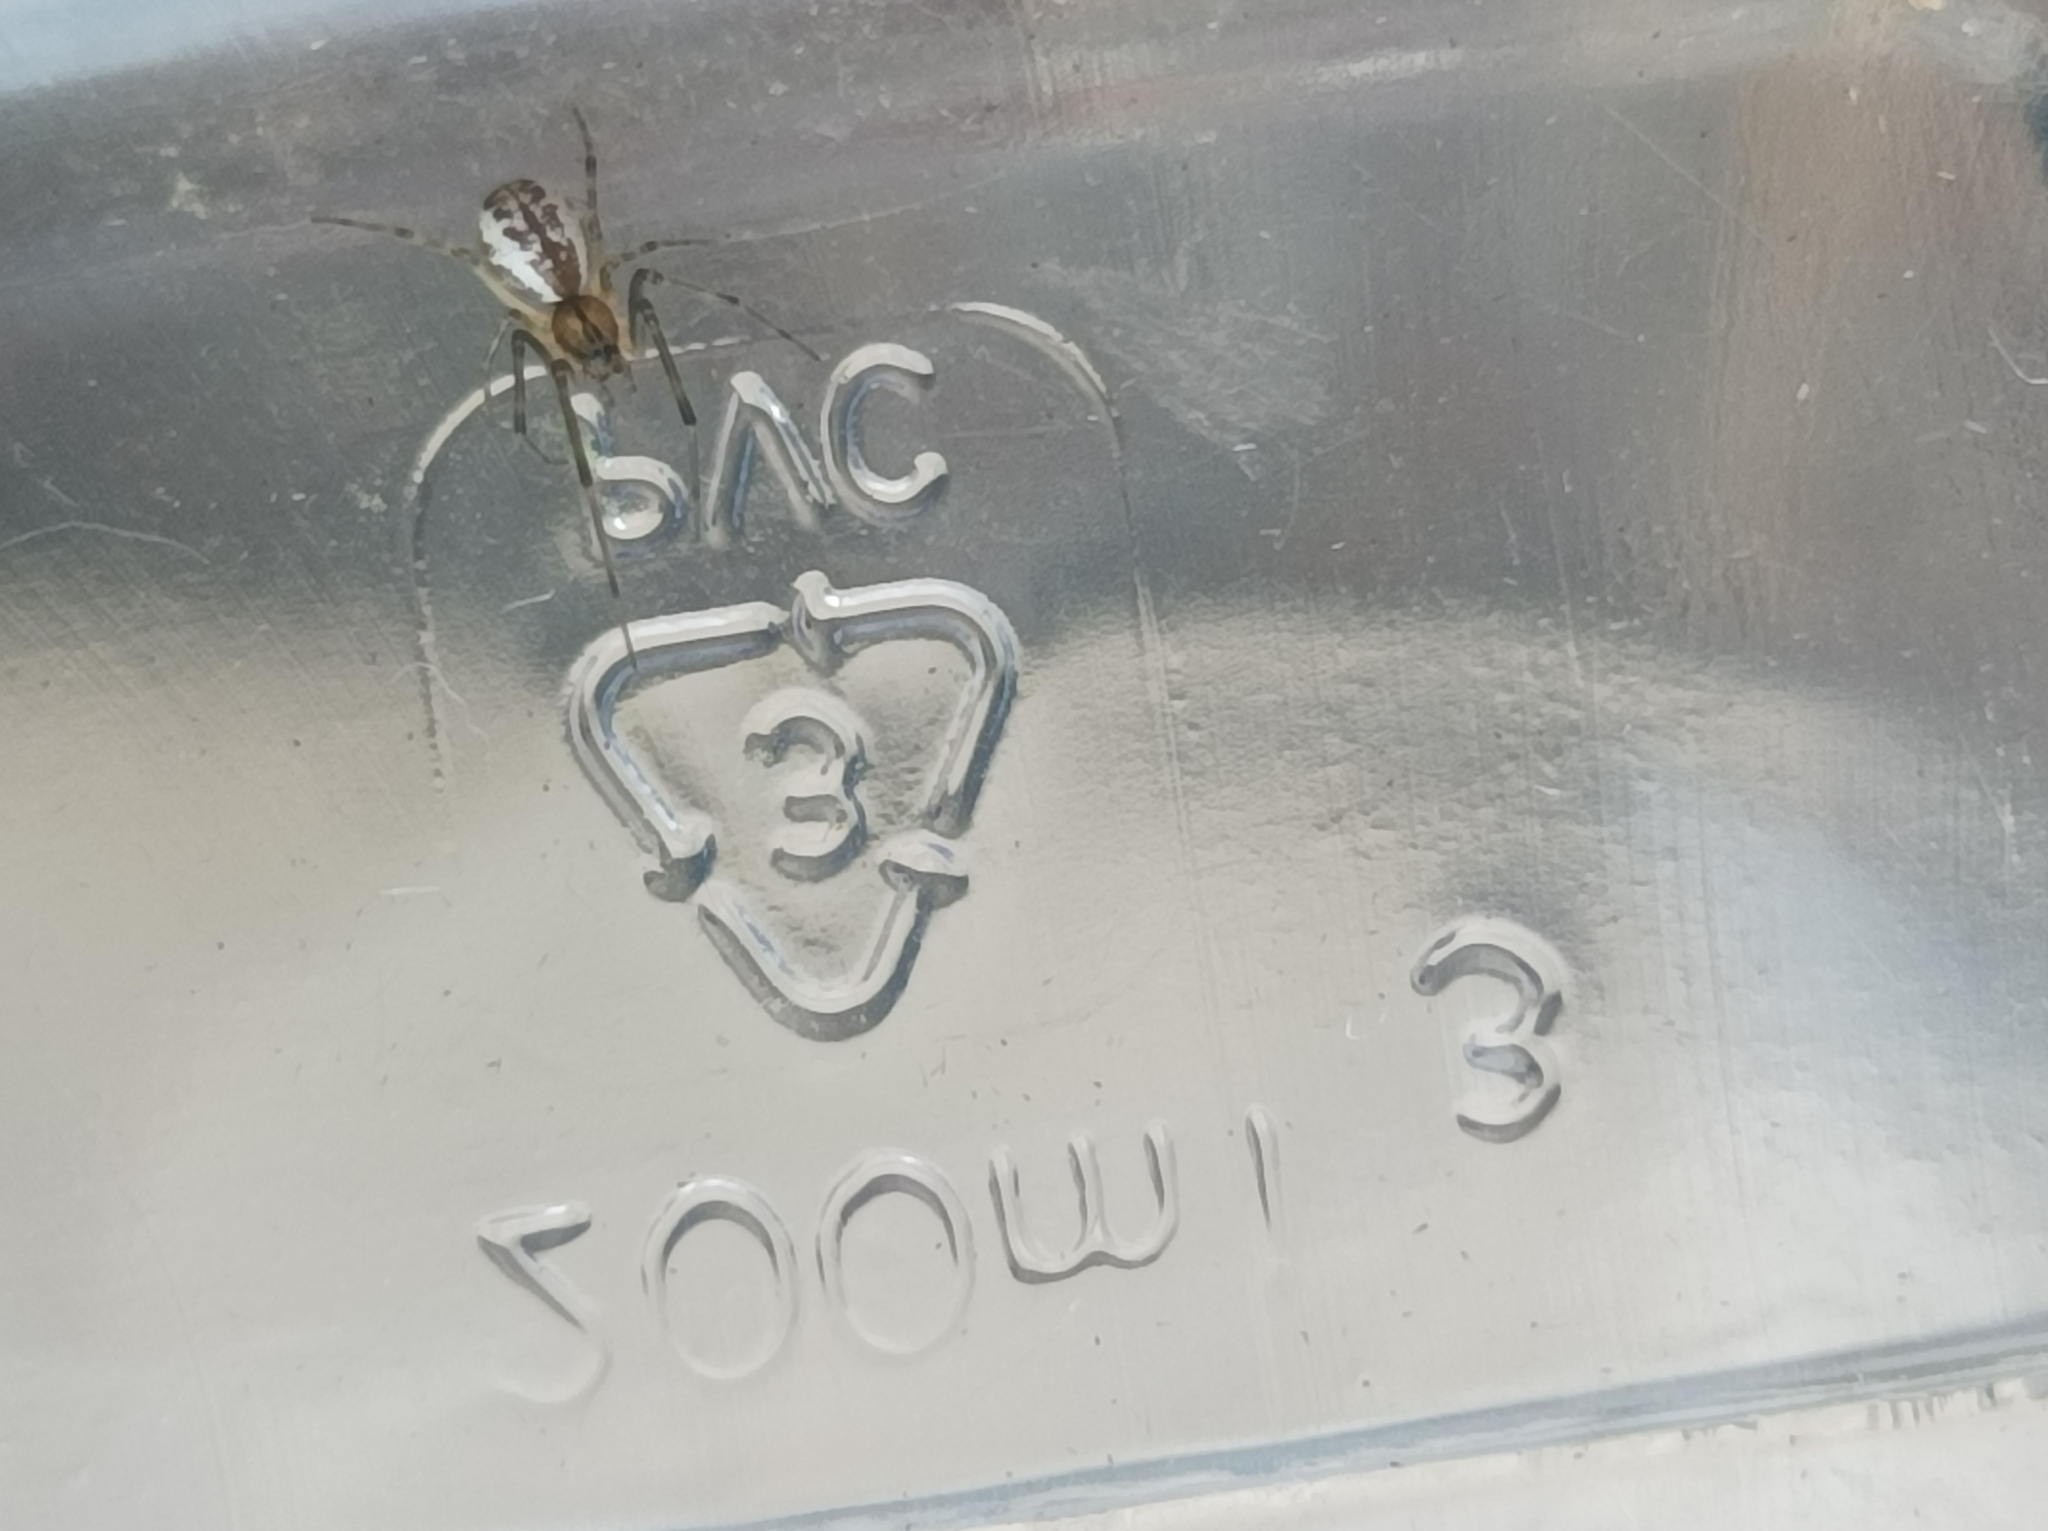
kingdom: Animalia
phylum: Arthropoda
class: Arachnida
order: Araneae
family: Linyphiidae
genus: Linyphia
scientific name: Linyphia triangularis
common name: Money spider
